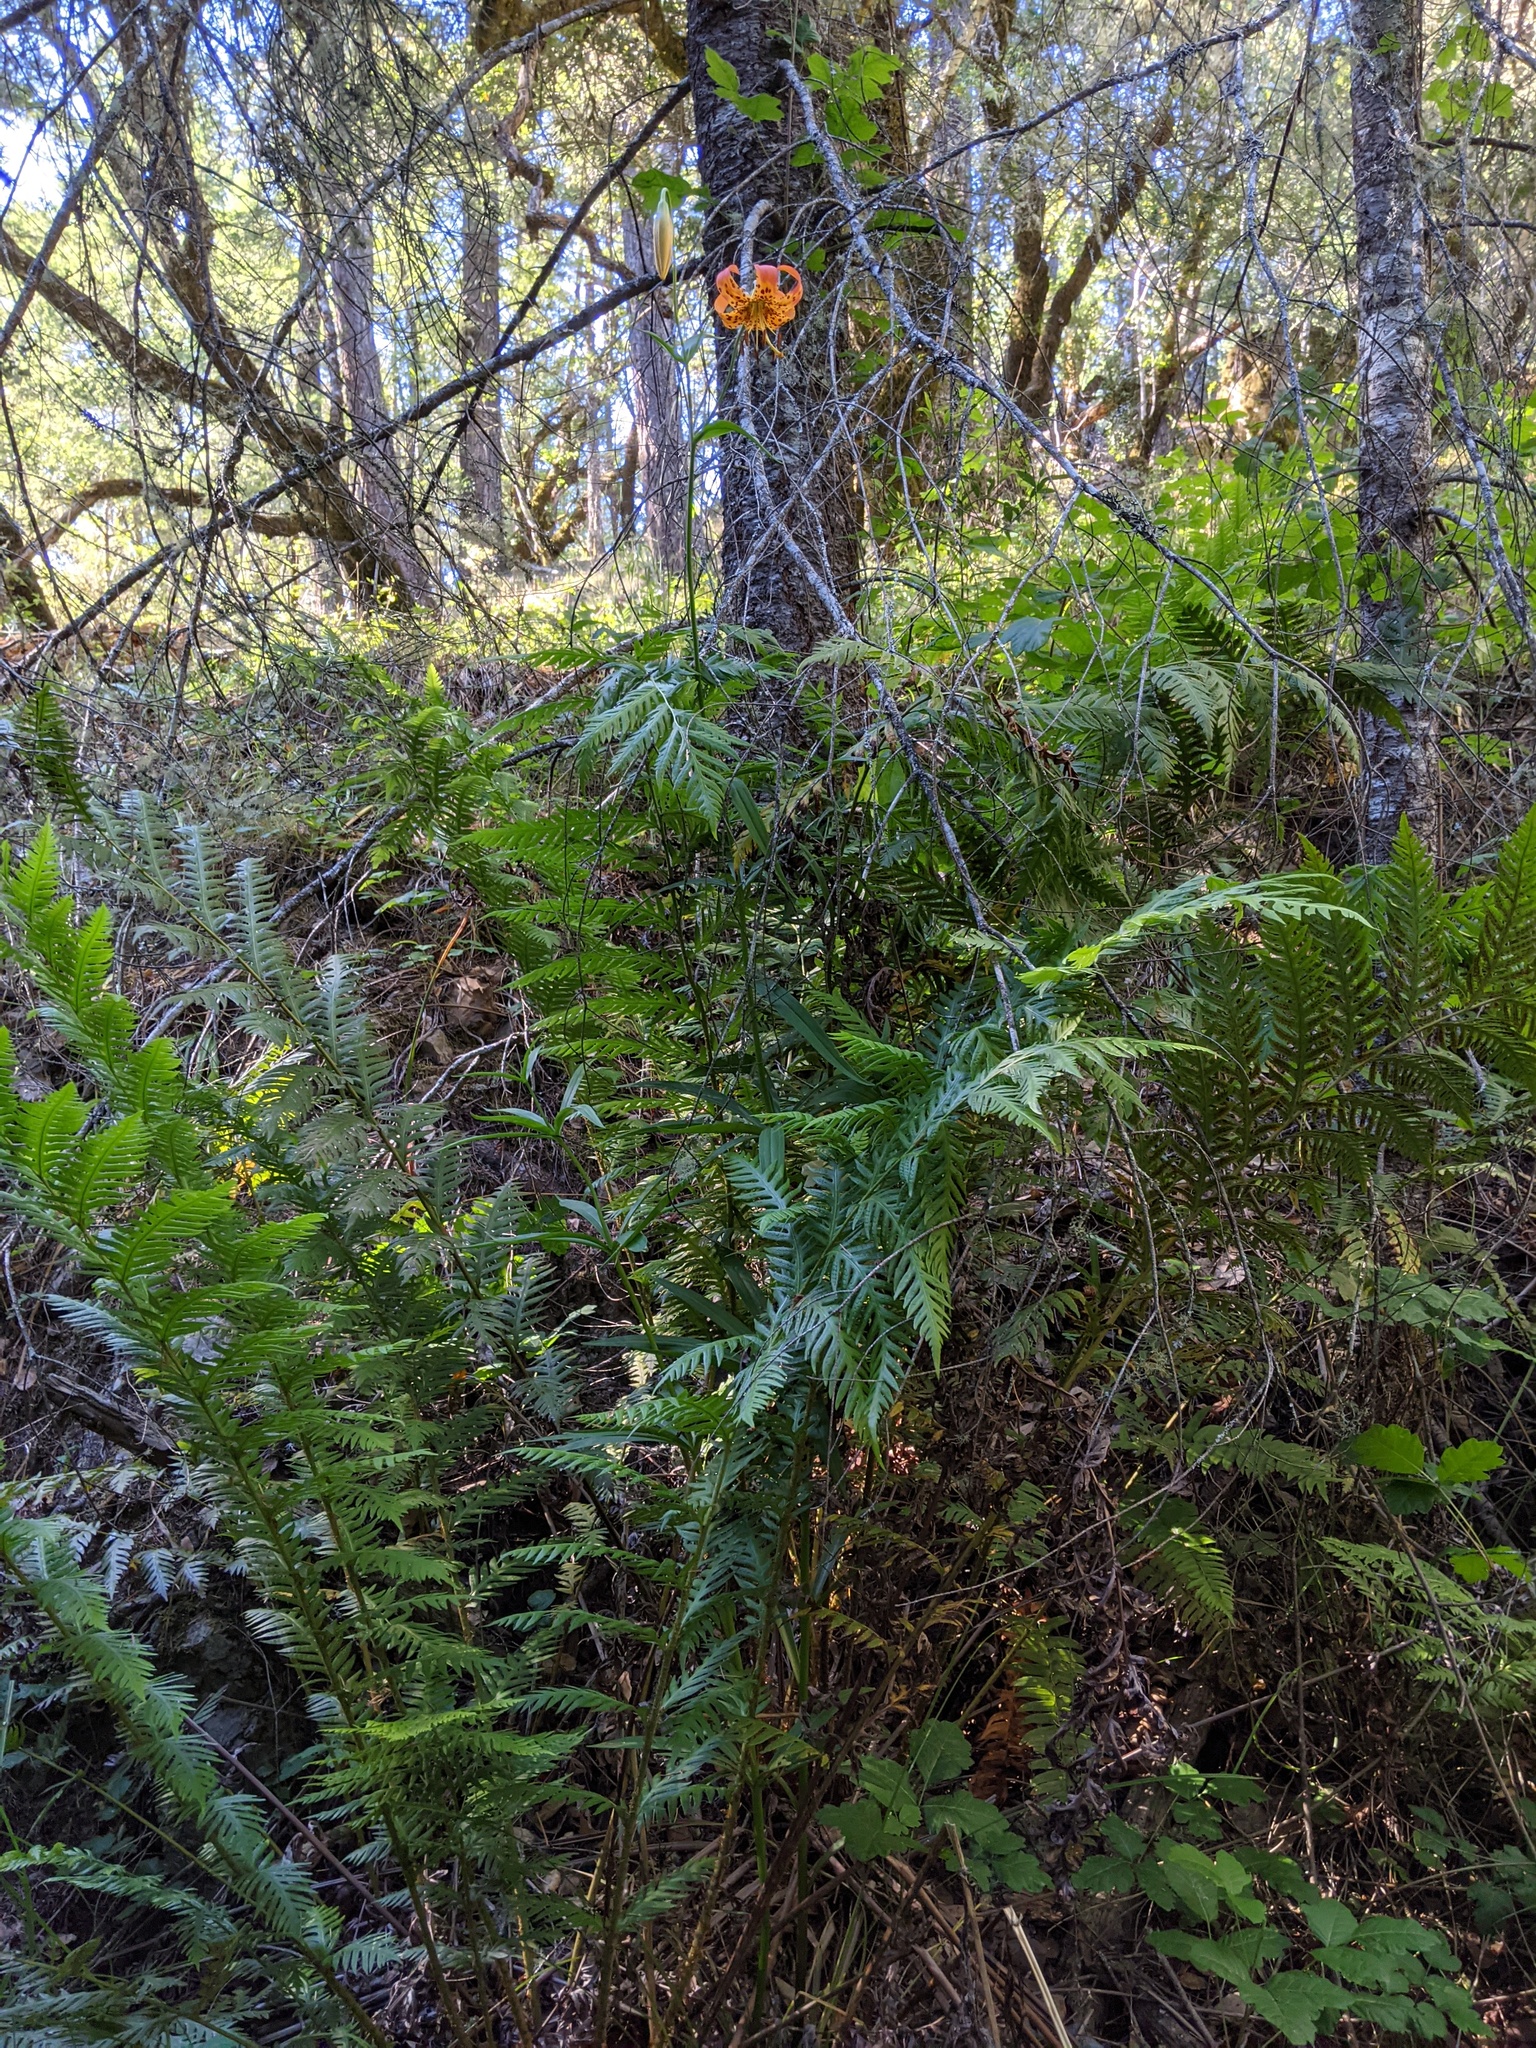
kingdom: Plantae
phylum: Tracheophyta
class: Liliopsida
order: Liliales
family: Liliaceae
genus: Lilium
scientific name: Lilium pardalinum
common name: Panther lily
